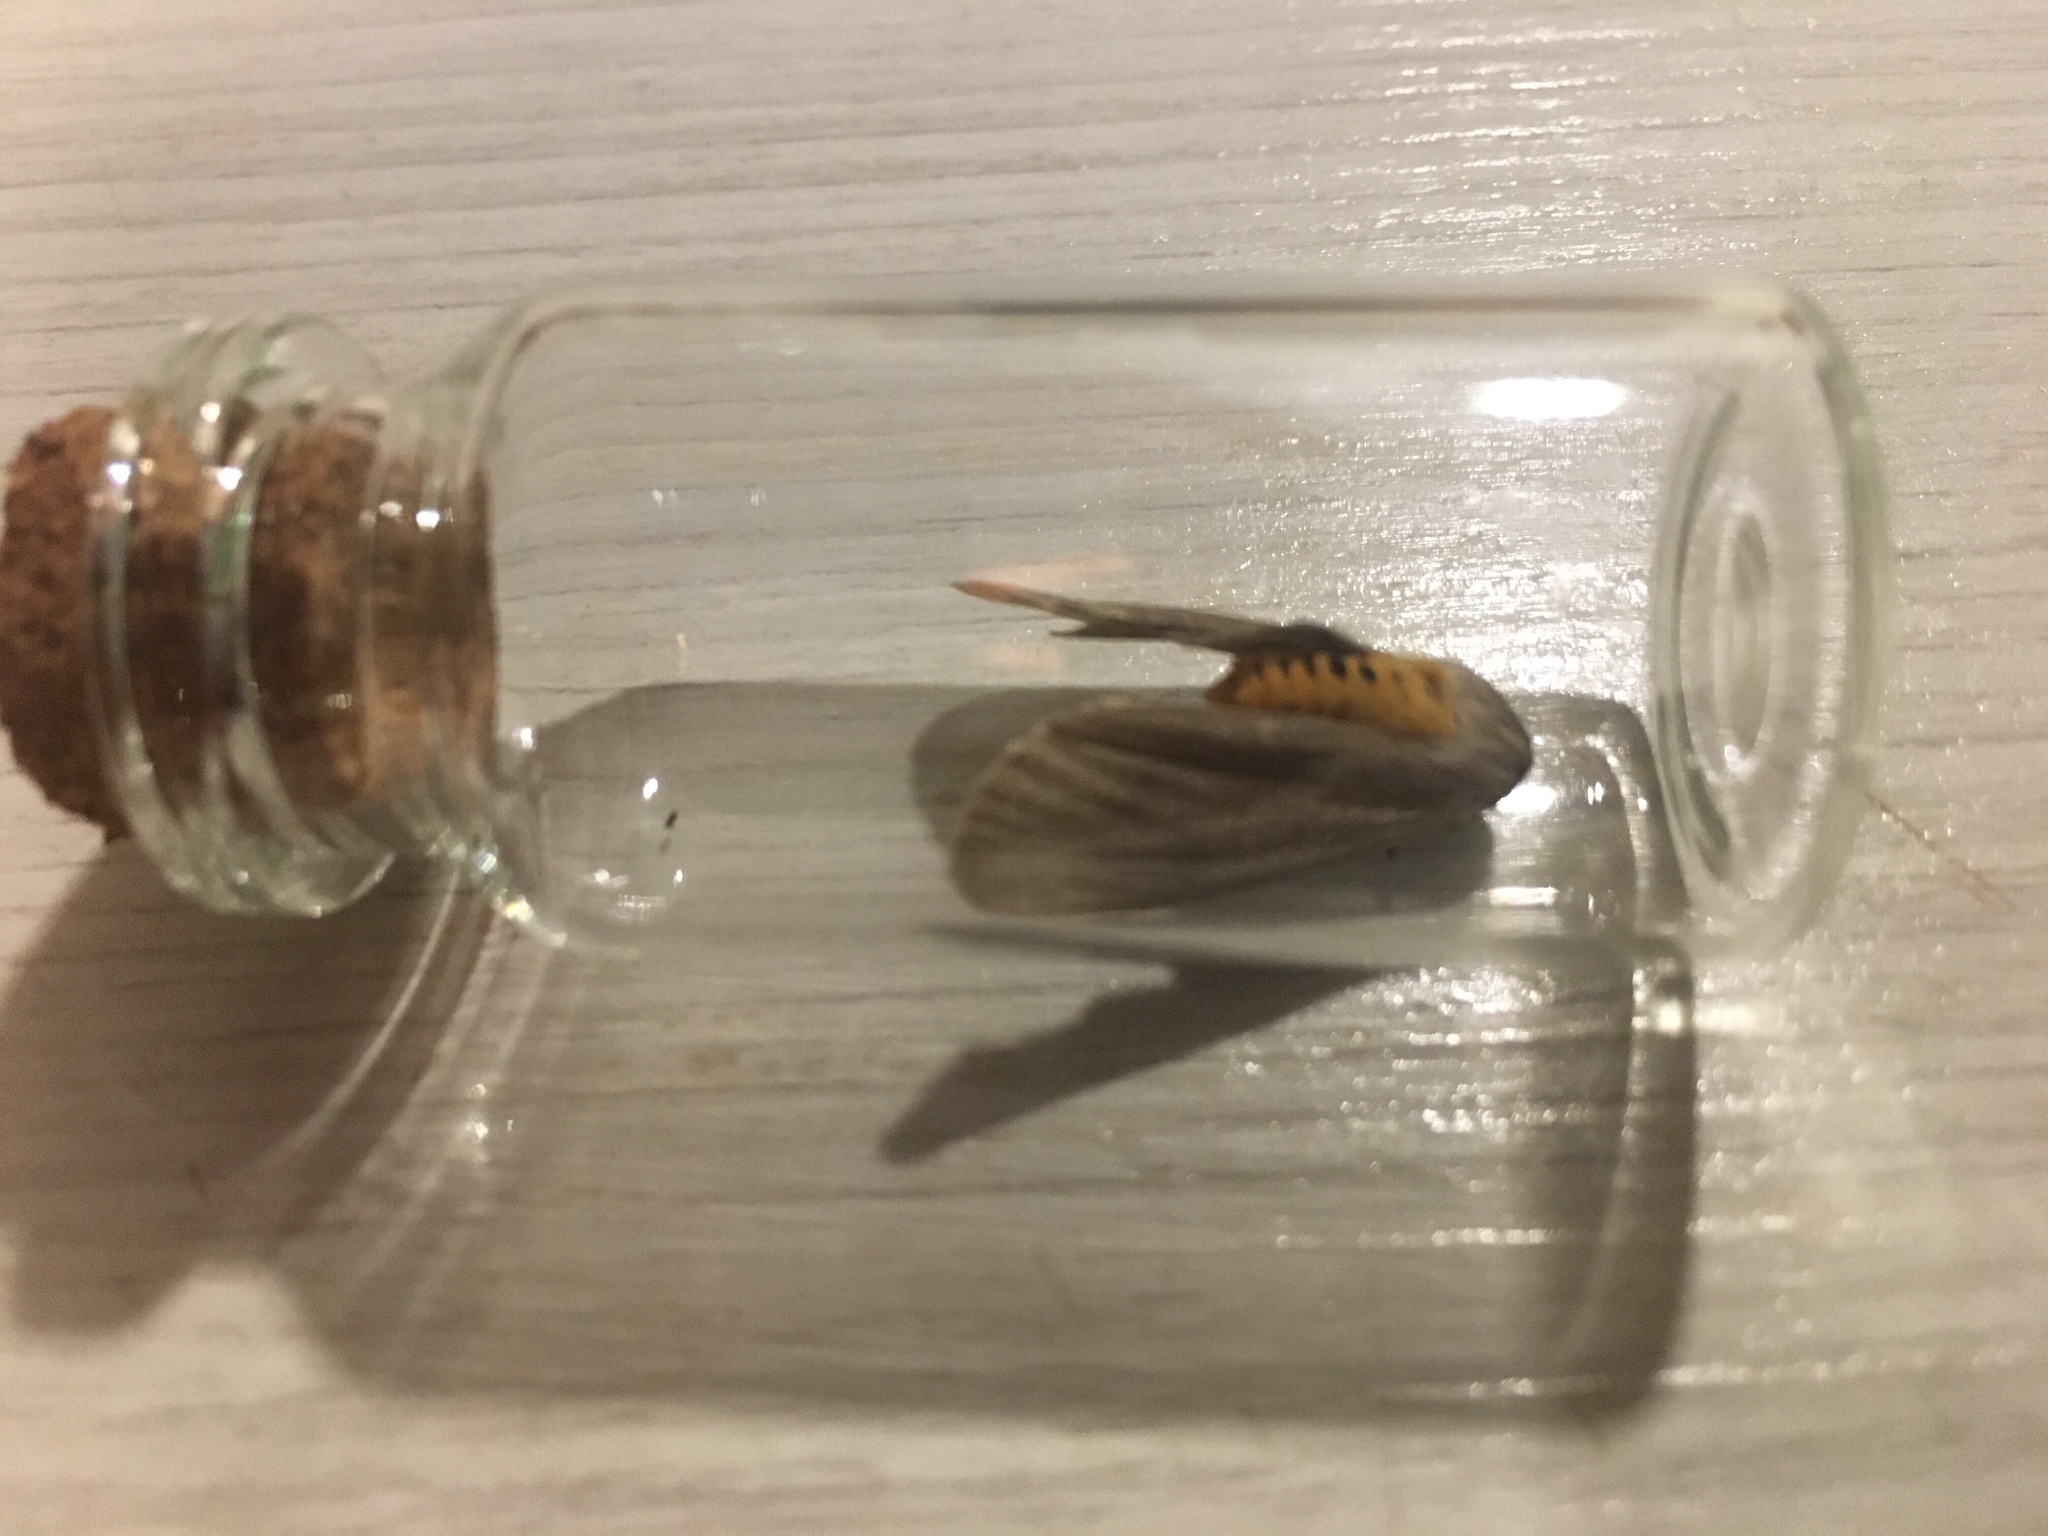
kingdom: Animalia
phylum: Arthropoda
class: Insecta
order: Lepidoptera
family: Erebidae
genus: Euchaetes
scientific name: Euchaetes egle
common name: Milkweed tussock moth
